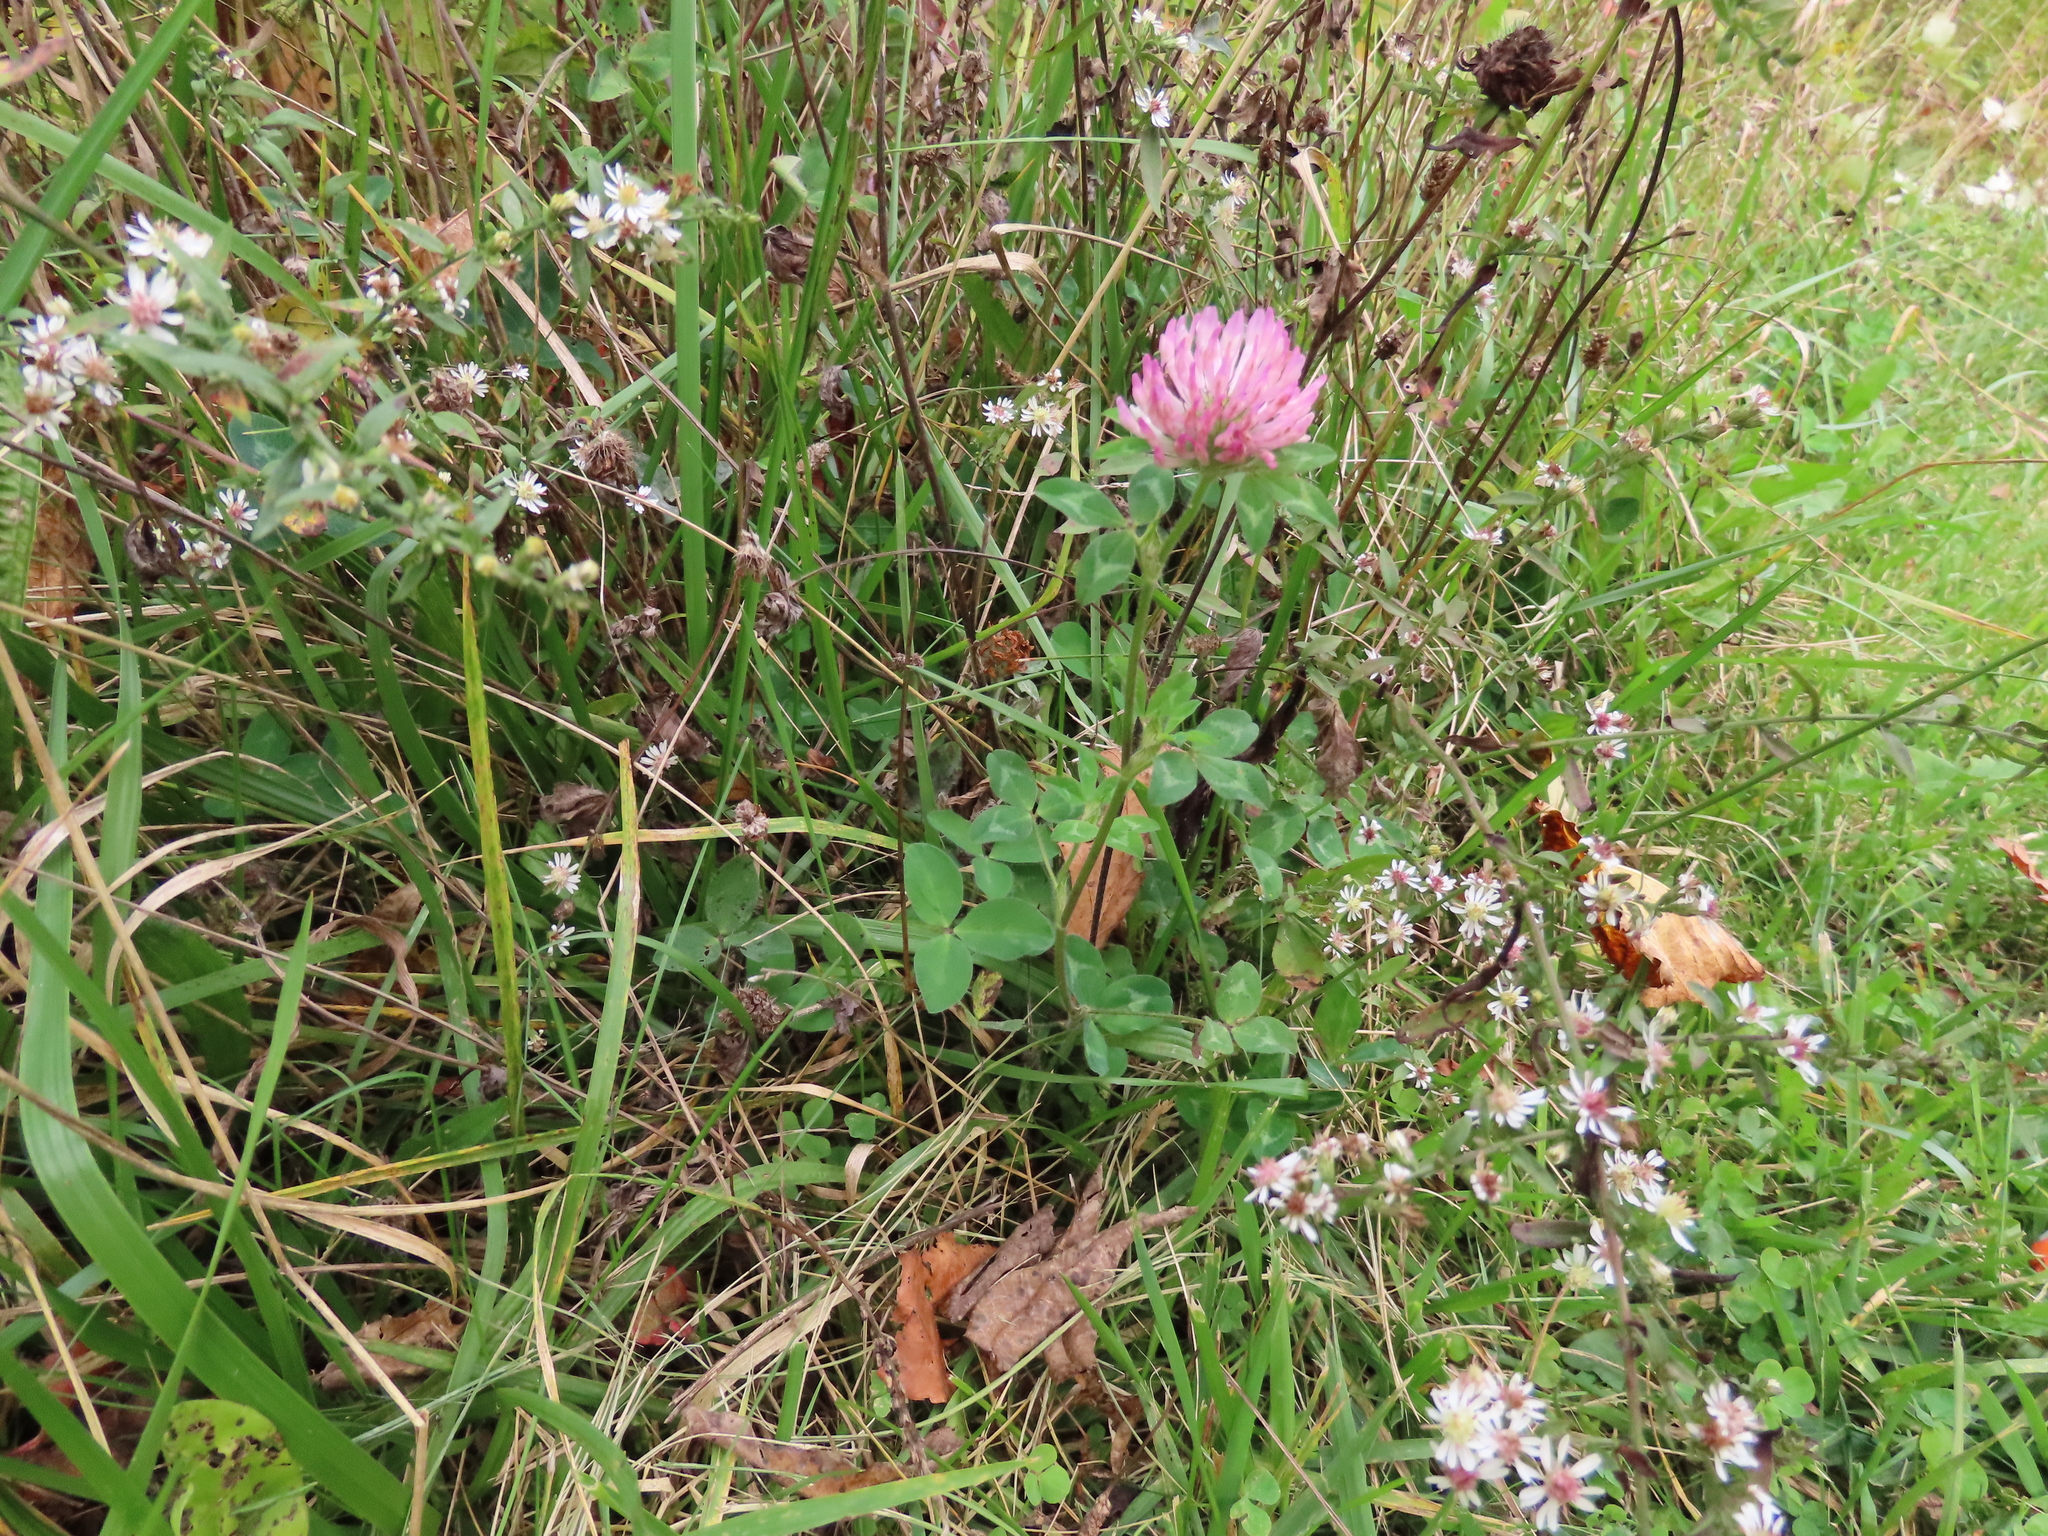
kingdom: Plantae
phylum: Tracheophyta
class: Magnoliopsida
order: Fabales
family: Fabaceae
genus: Trifolium
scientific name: Trifolium pratense
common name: Red clover
